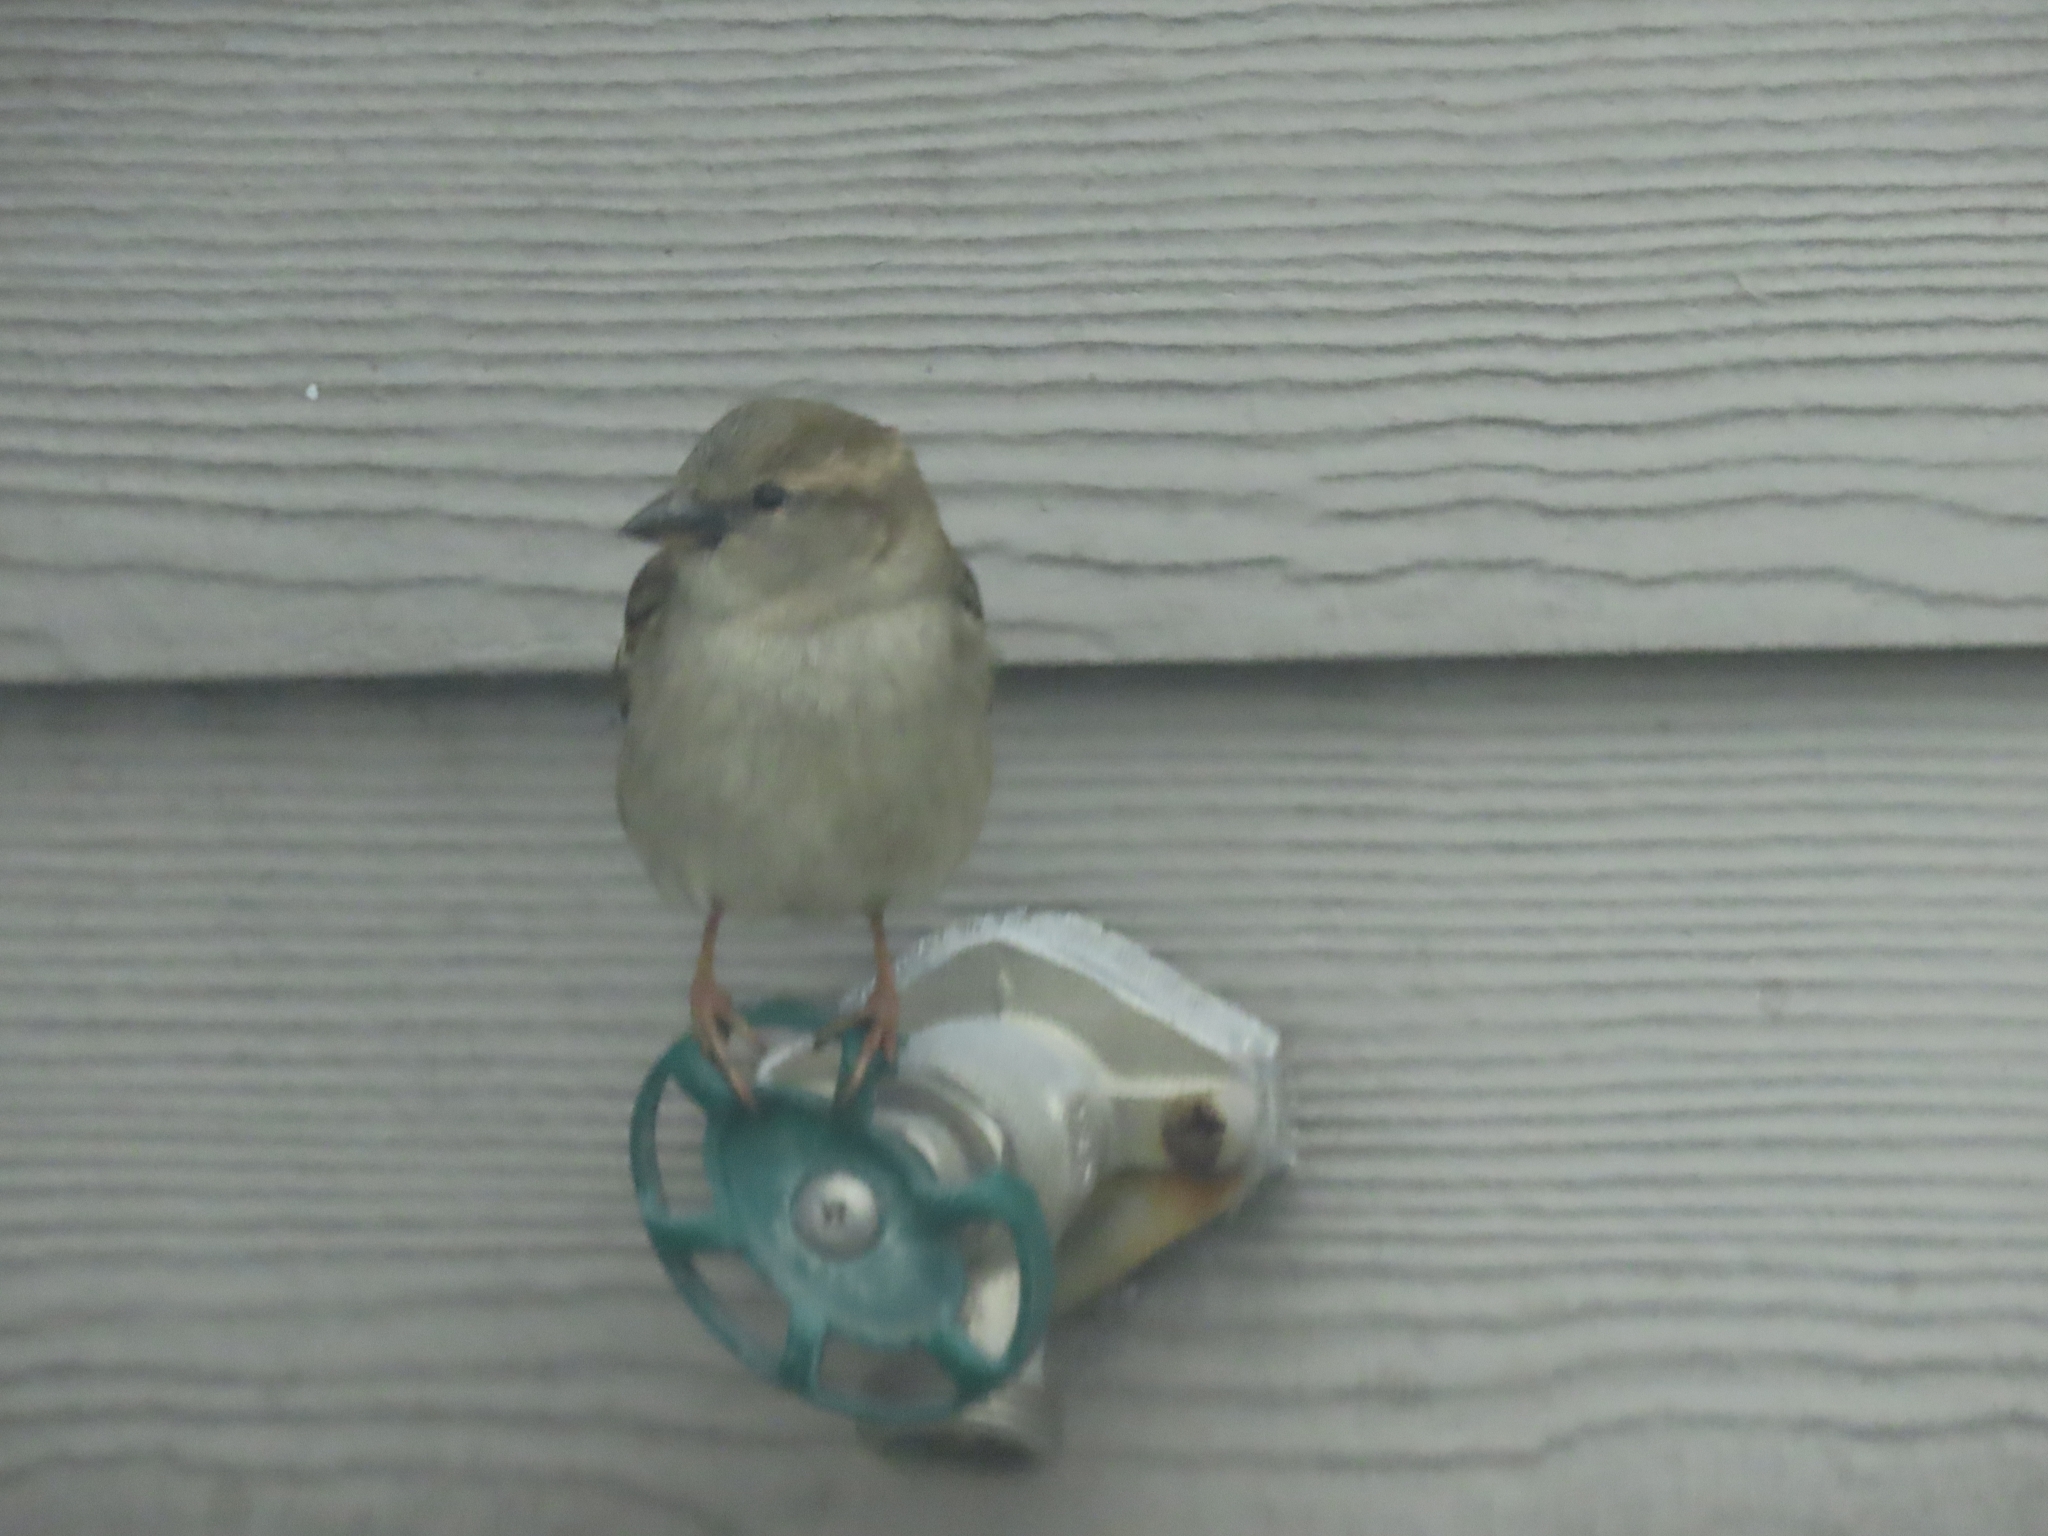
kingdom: Animalia
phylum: Chordata
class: Aves
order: Passeriformes
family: Passeridae
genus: Passer
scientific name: Passer domesticus
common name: House sparrow
